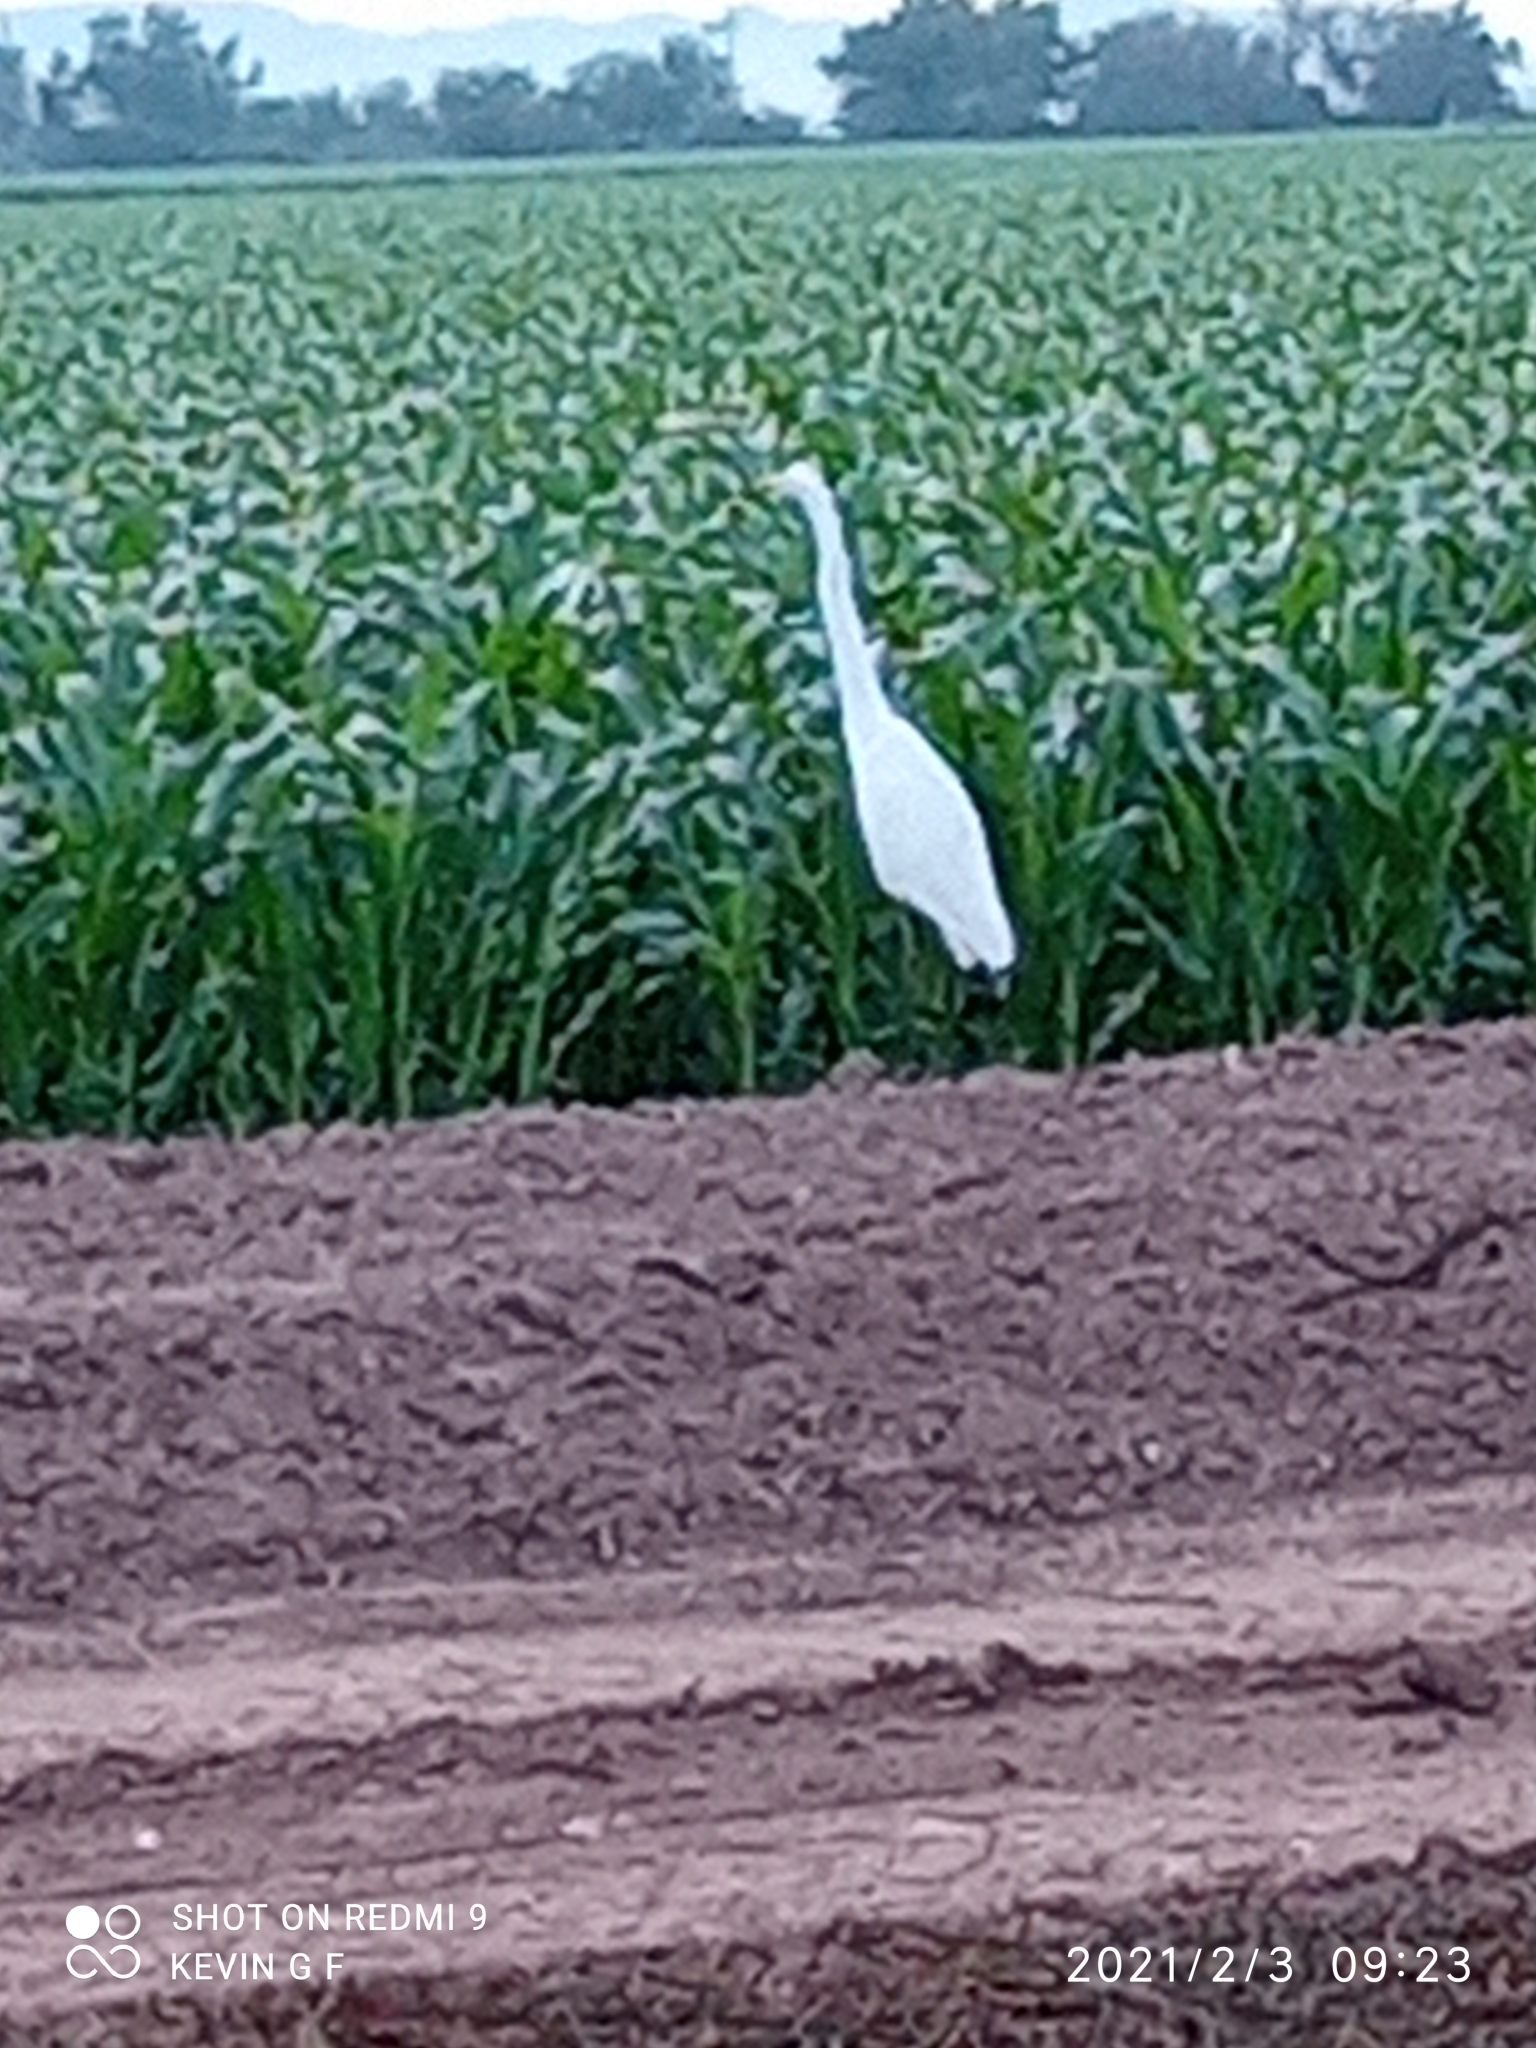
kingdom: Animalia
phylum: Chordata
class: Aves
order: Pelecaniformes
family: Ardeidae
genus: Ardea
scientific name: Ardea alba
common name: Great egret
